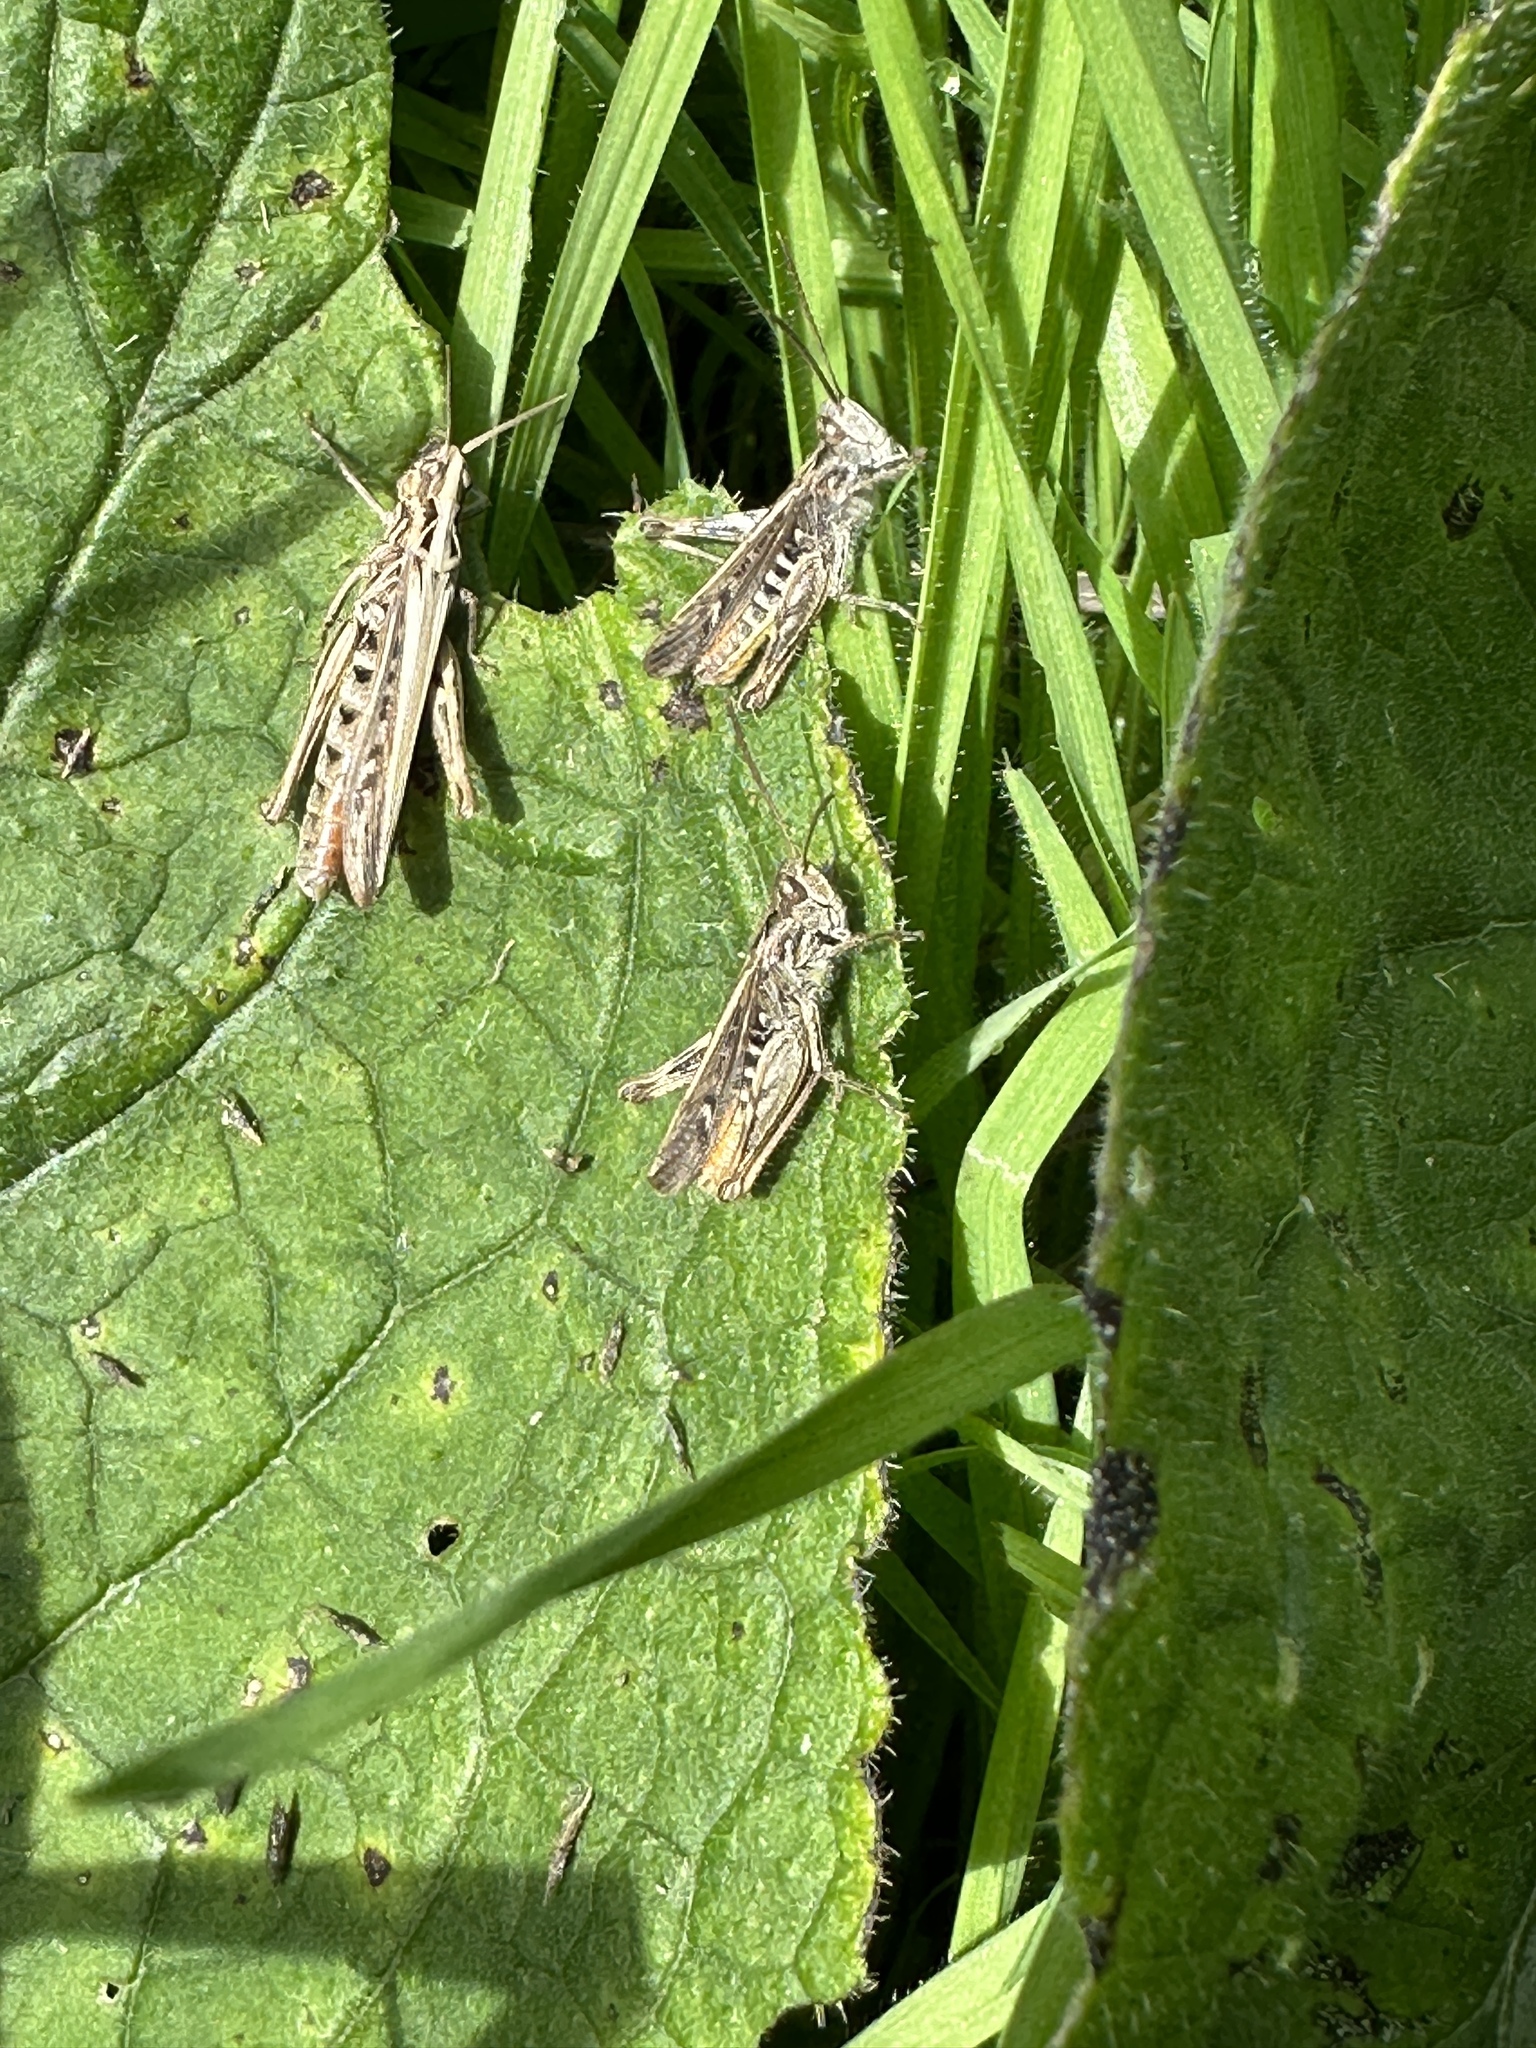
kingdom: Animalia
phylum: Arthropoda
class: Insecta
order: Orthoptera
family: Acrididae
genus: Chorthippus
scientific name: Chorthippus brunneus
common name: Field grasshopper
